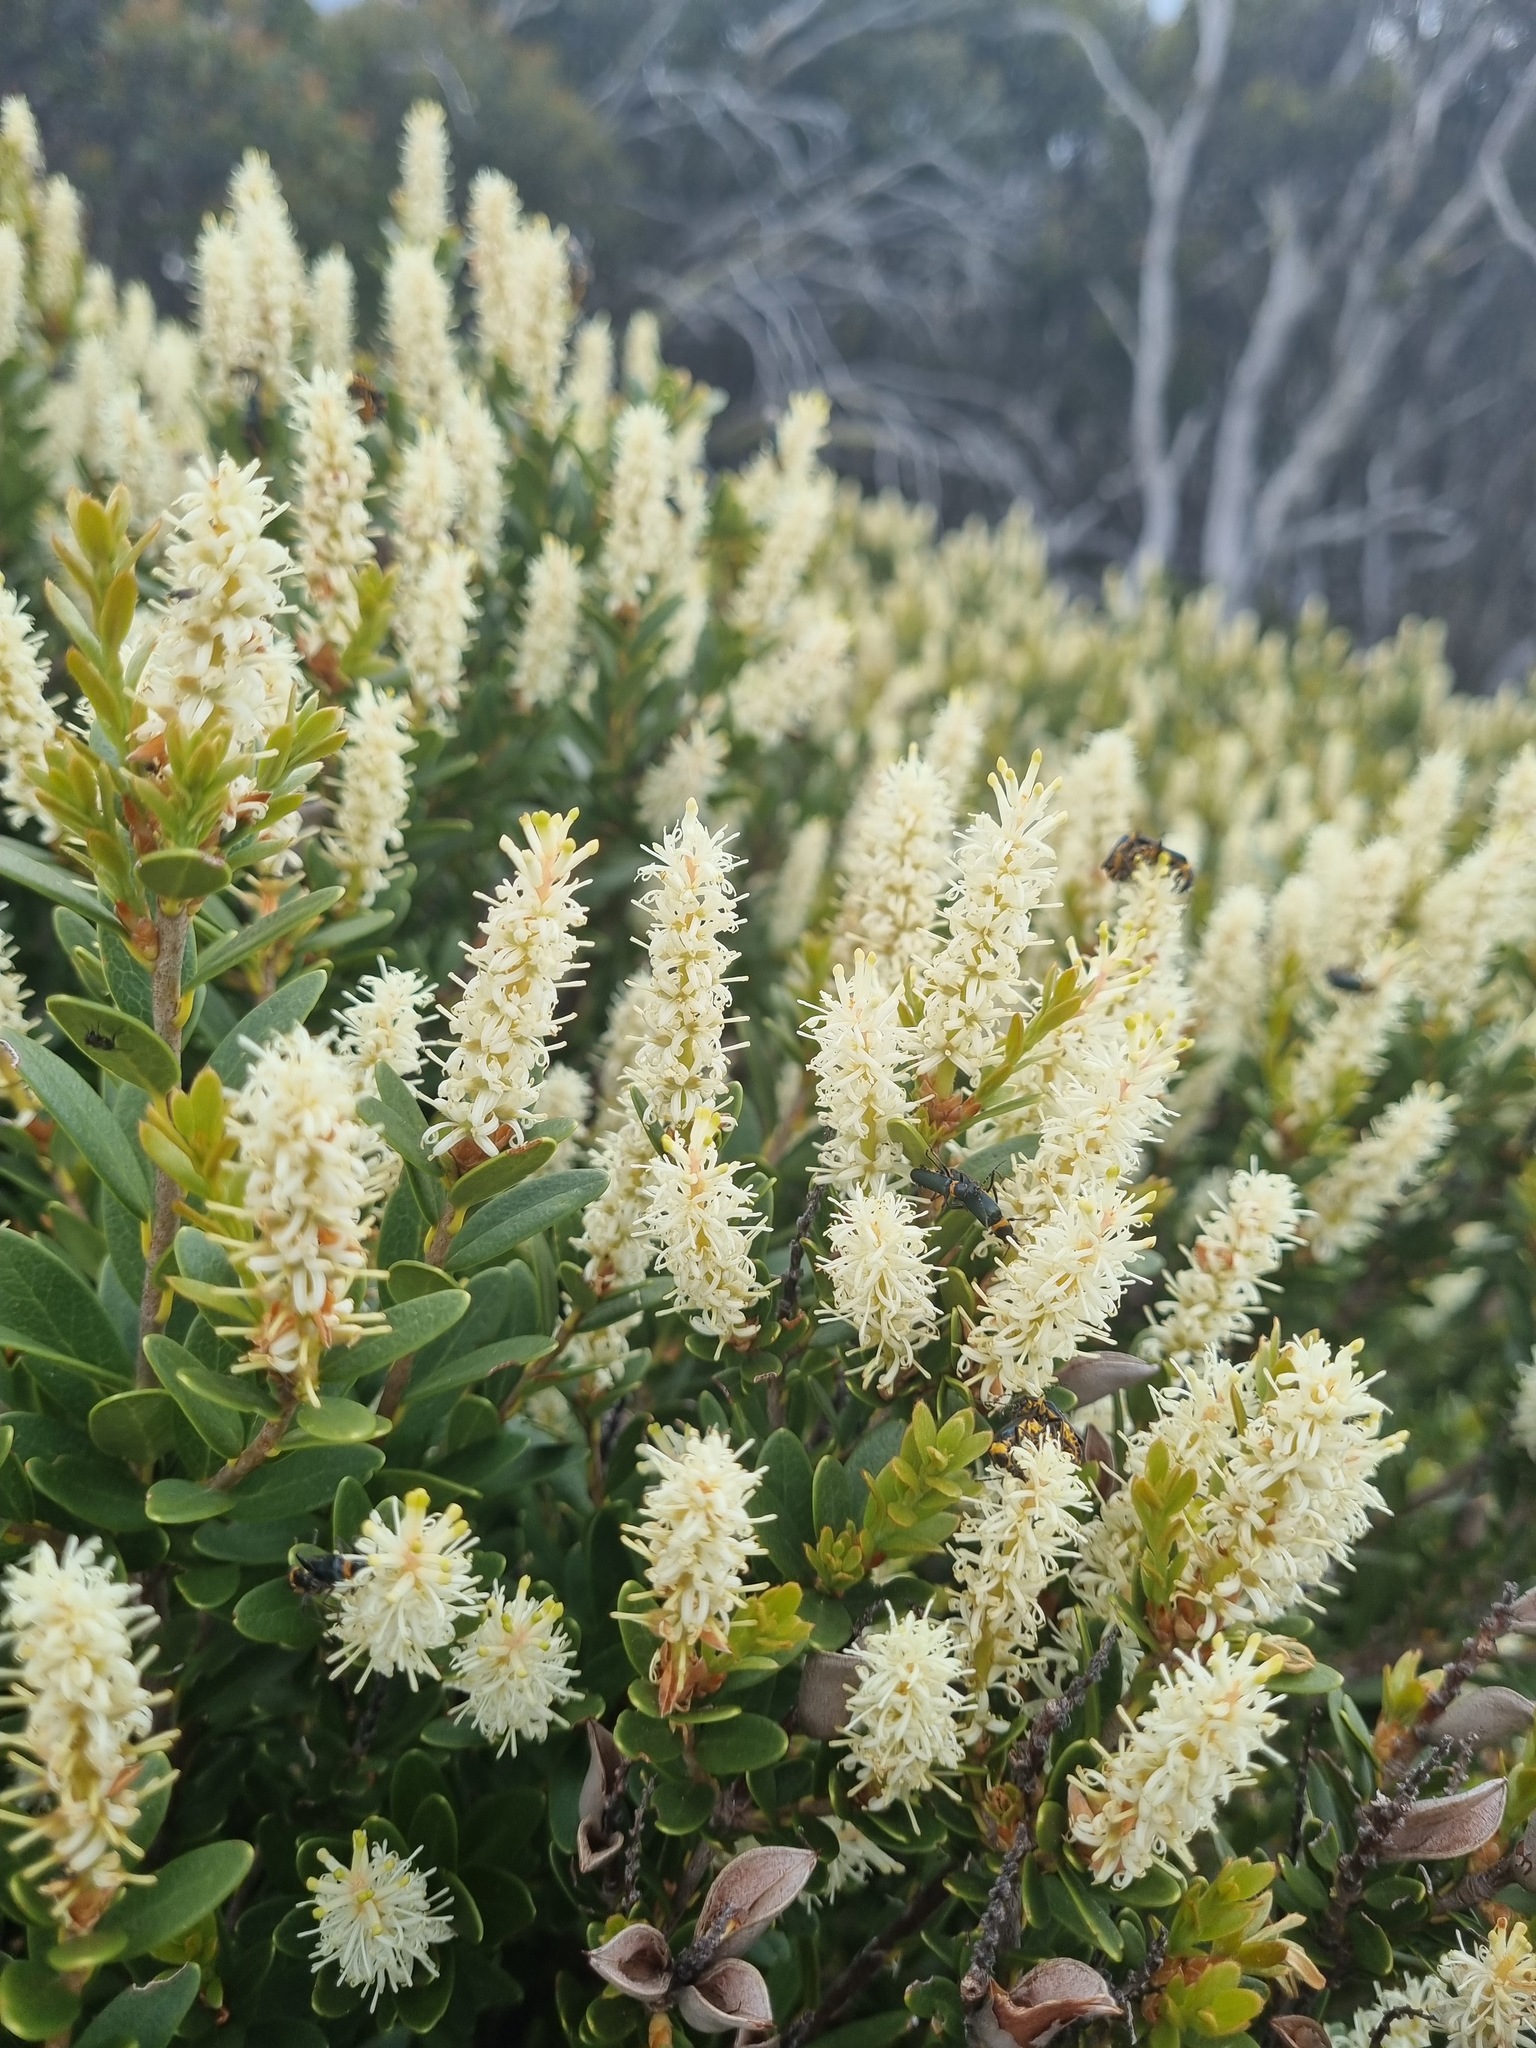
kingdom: Plantae
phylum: Tracheophyta
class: Magnoliopsida
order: Proteales
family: Proteaceae
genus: Orites
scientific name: Orites lancifolius
